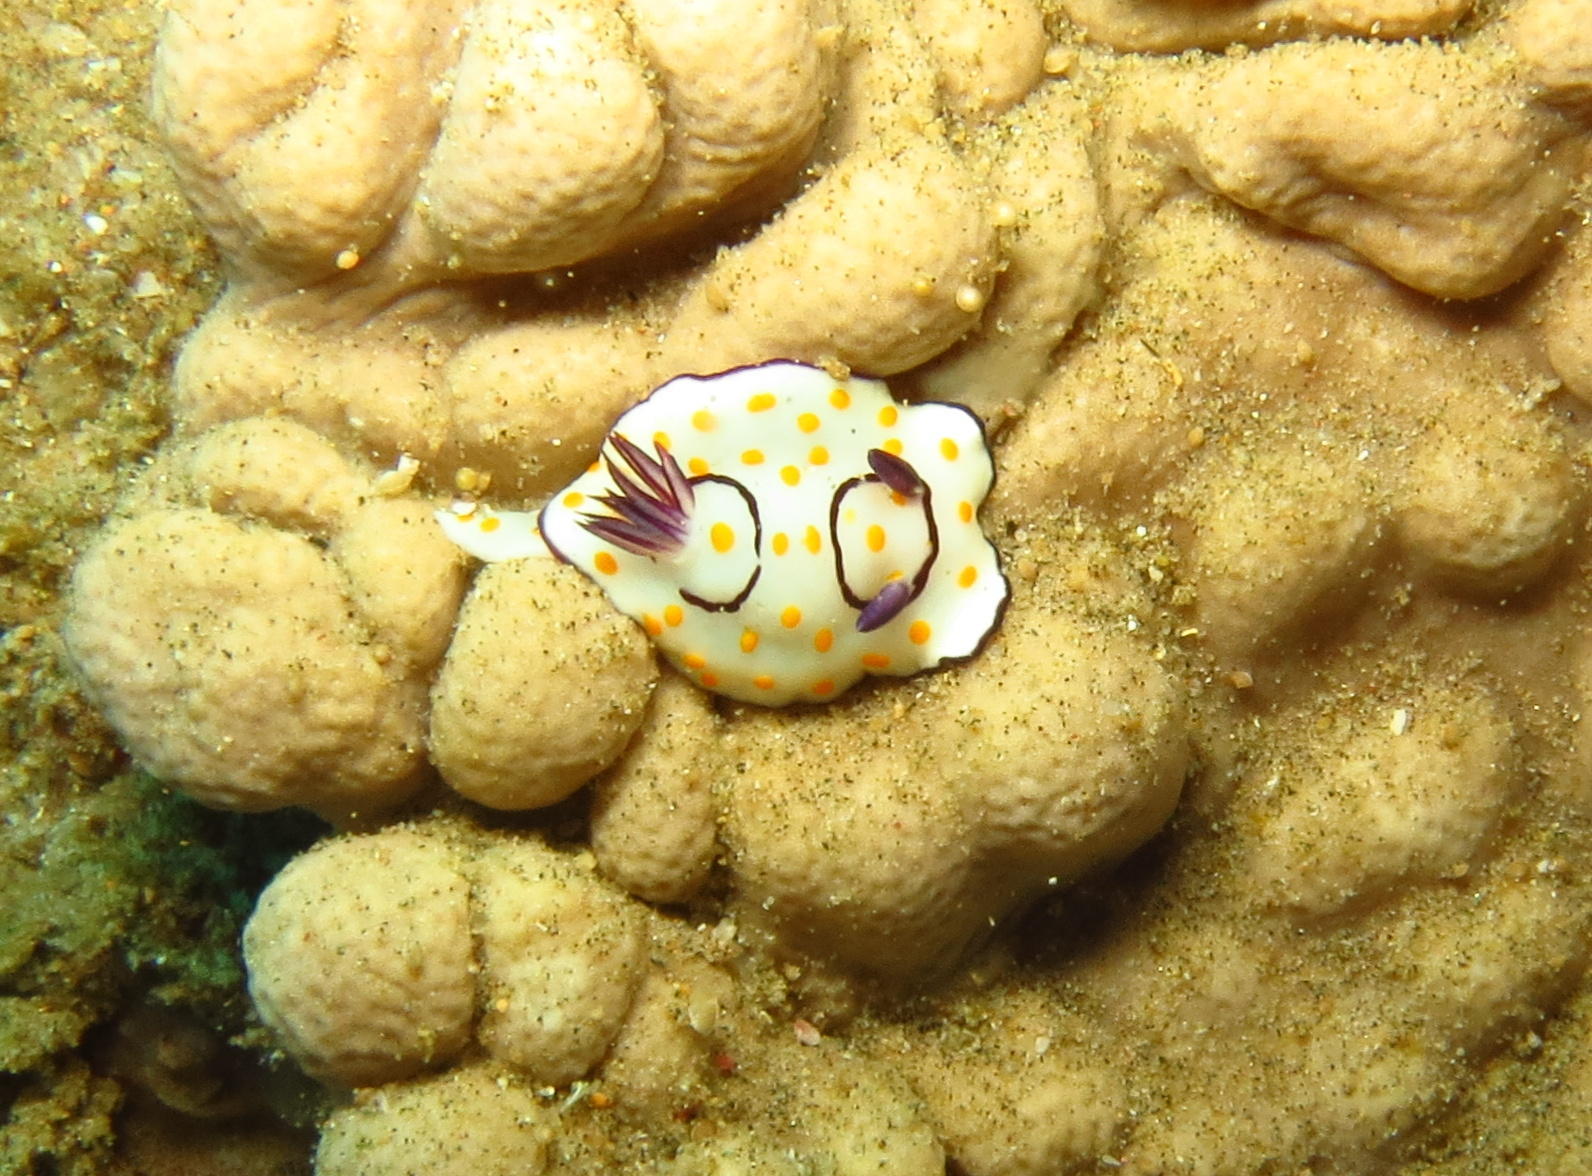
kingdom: Animalia
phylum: Mollusca
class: Gastropoda
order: Nudibranchia
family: Chromodorididae
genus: Goniobranchus
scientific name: Goniobranchus annulatus
